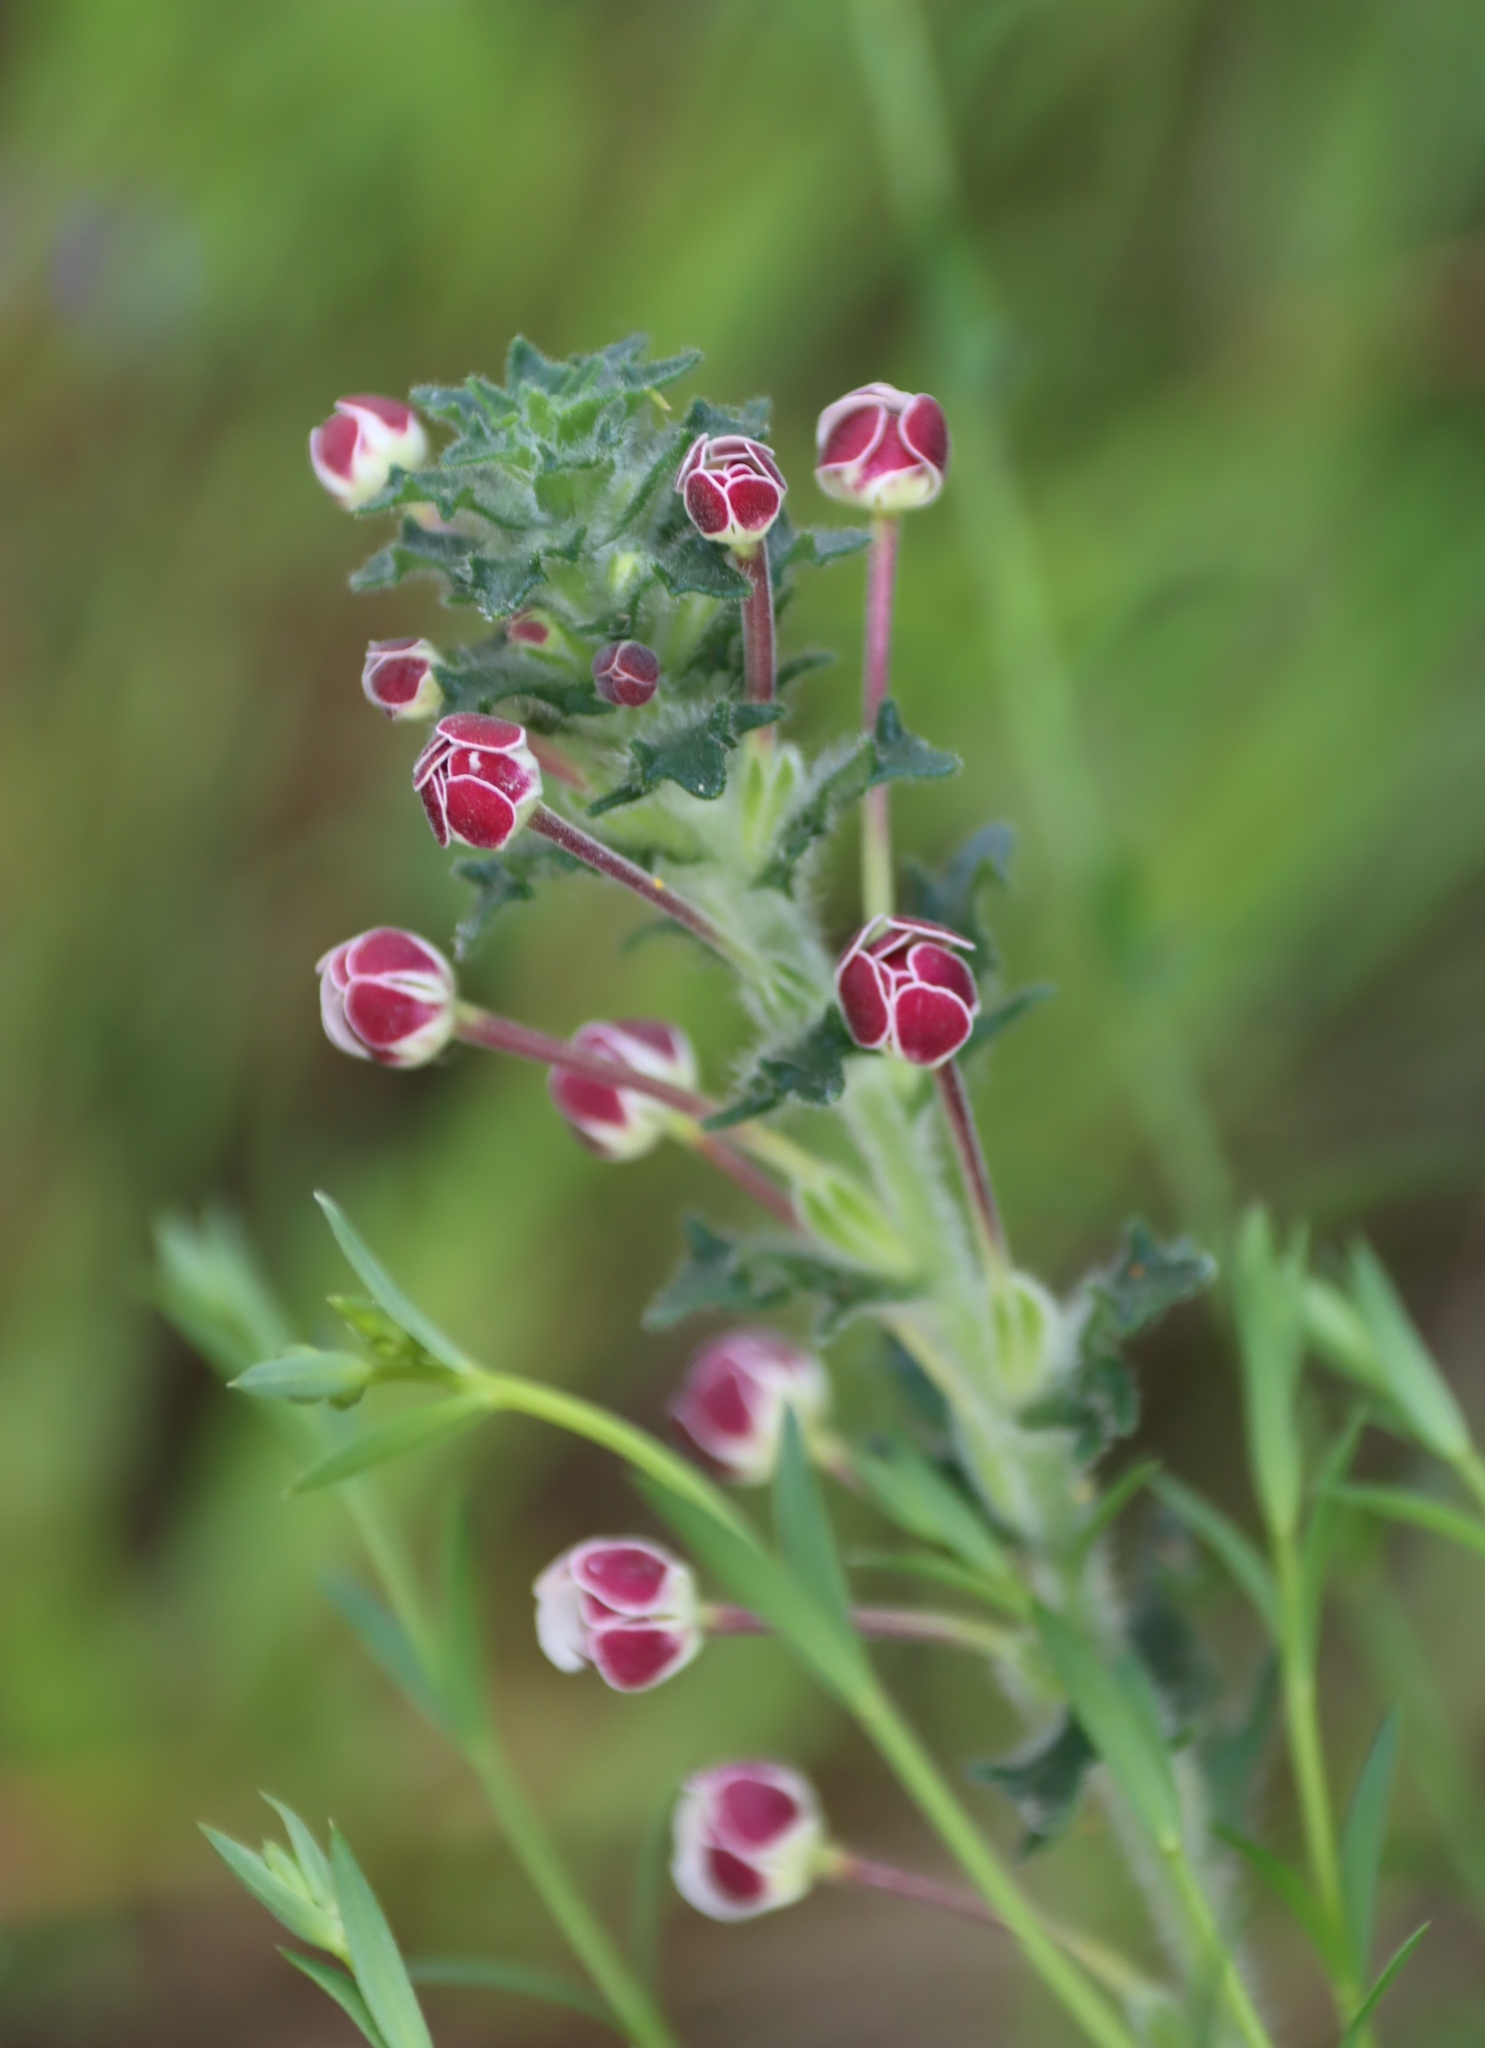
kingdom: Plantae
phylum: Tracheophyta
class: Magnoliopsida
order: Lamiales
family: Scrophulariaceae
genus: Zaluzianskya
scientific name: Zaluzianskya capensis
